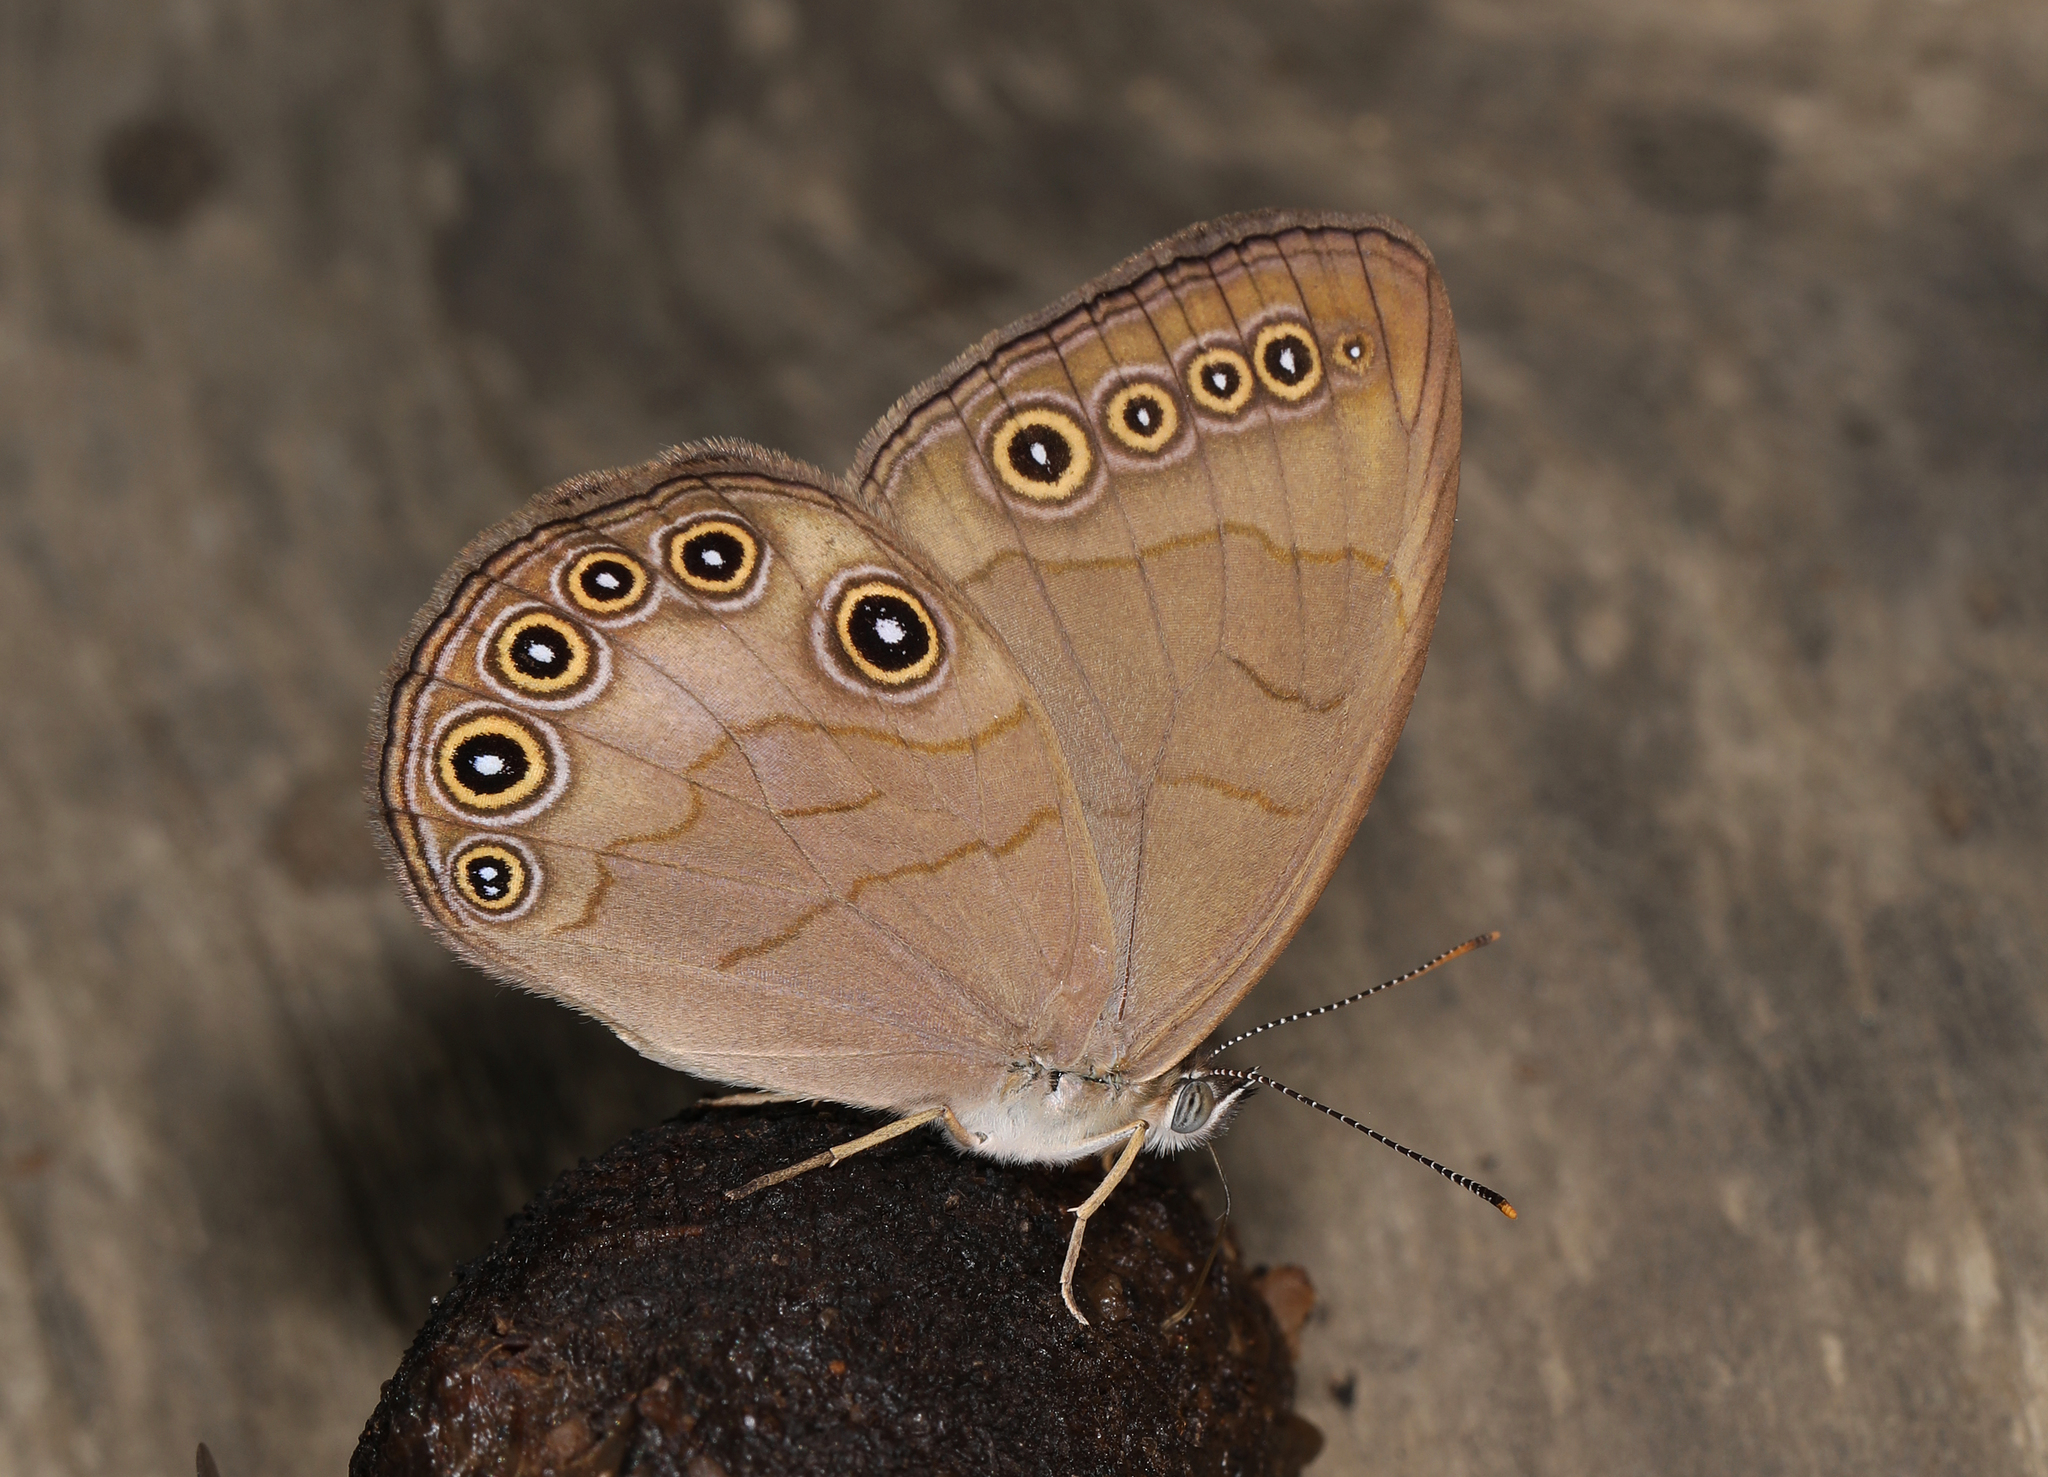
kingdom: Animalia
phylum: Arthropoda
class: Insecta
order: Lepidoptera
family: Nymphalidae
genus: Lethe
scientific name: Lethe eurydice
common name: Eyed brown
